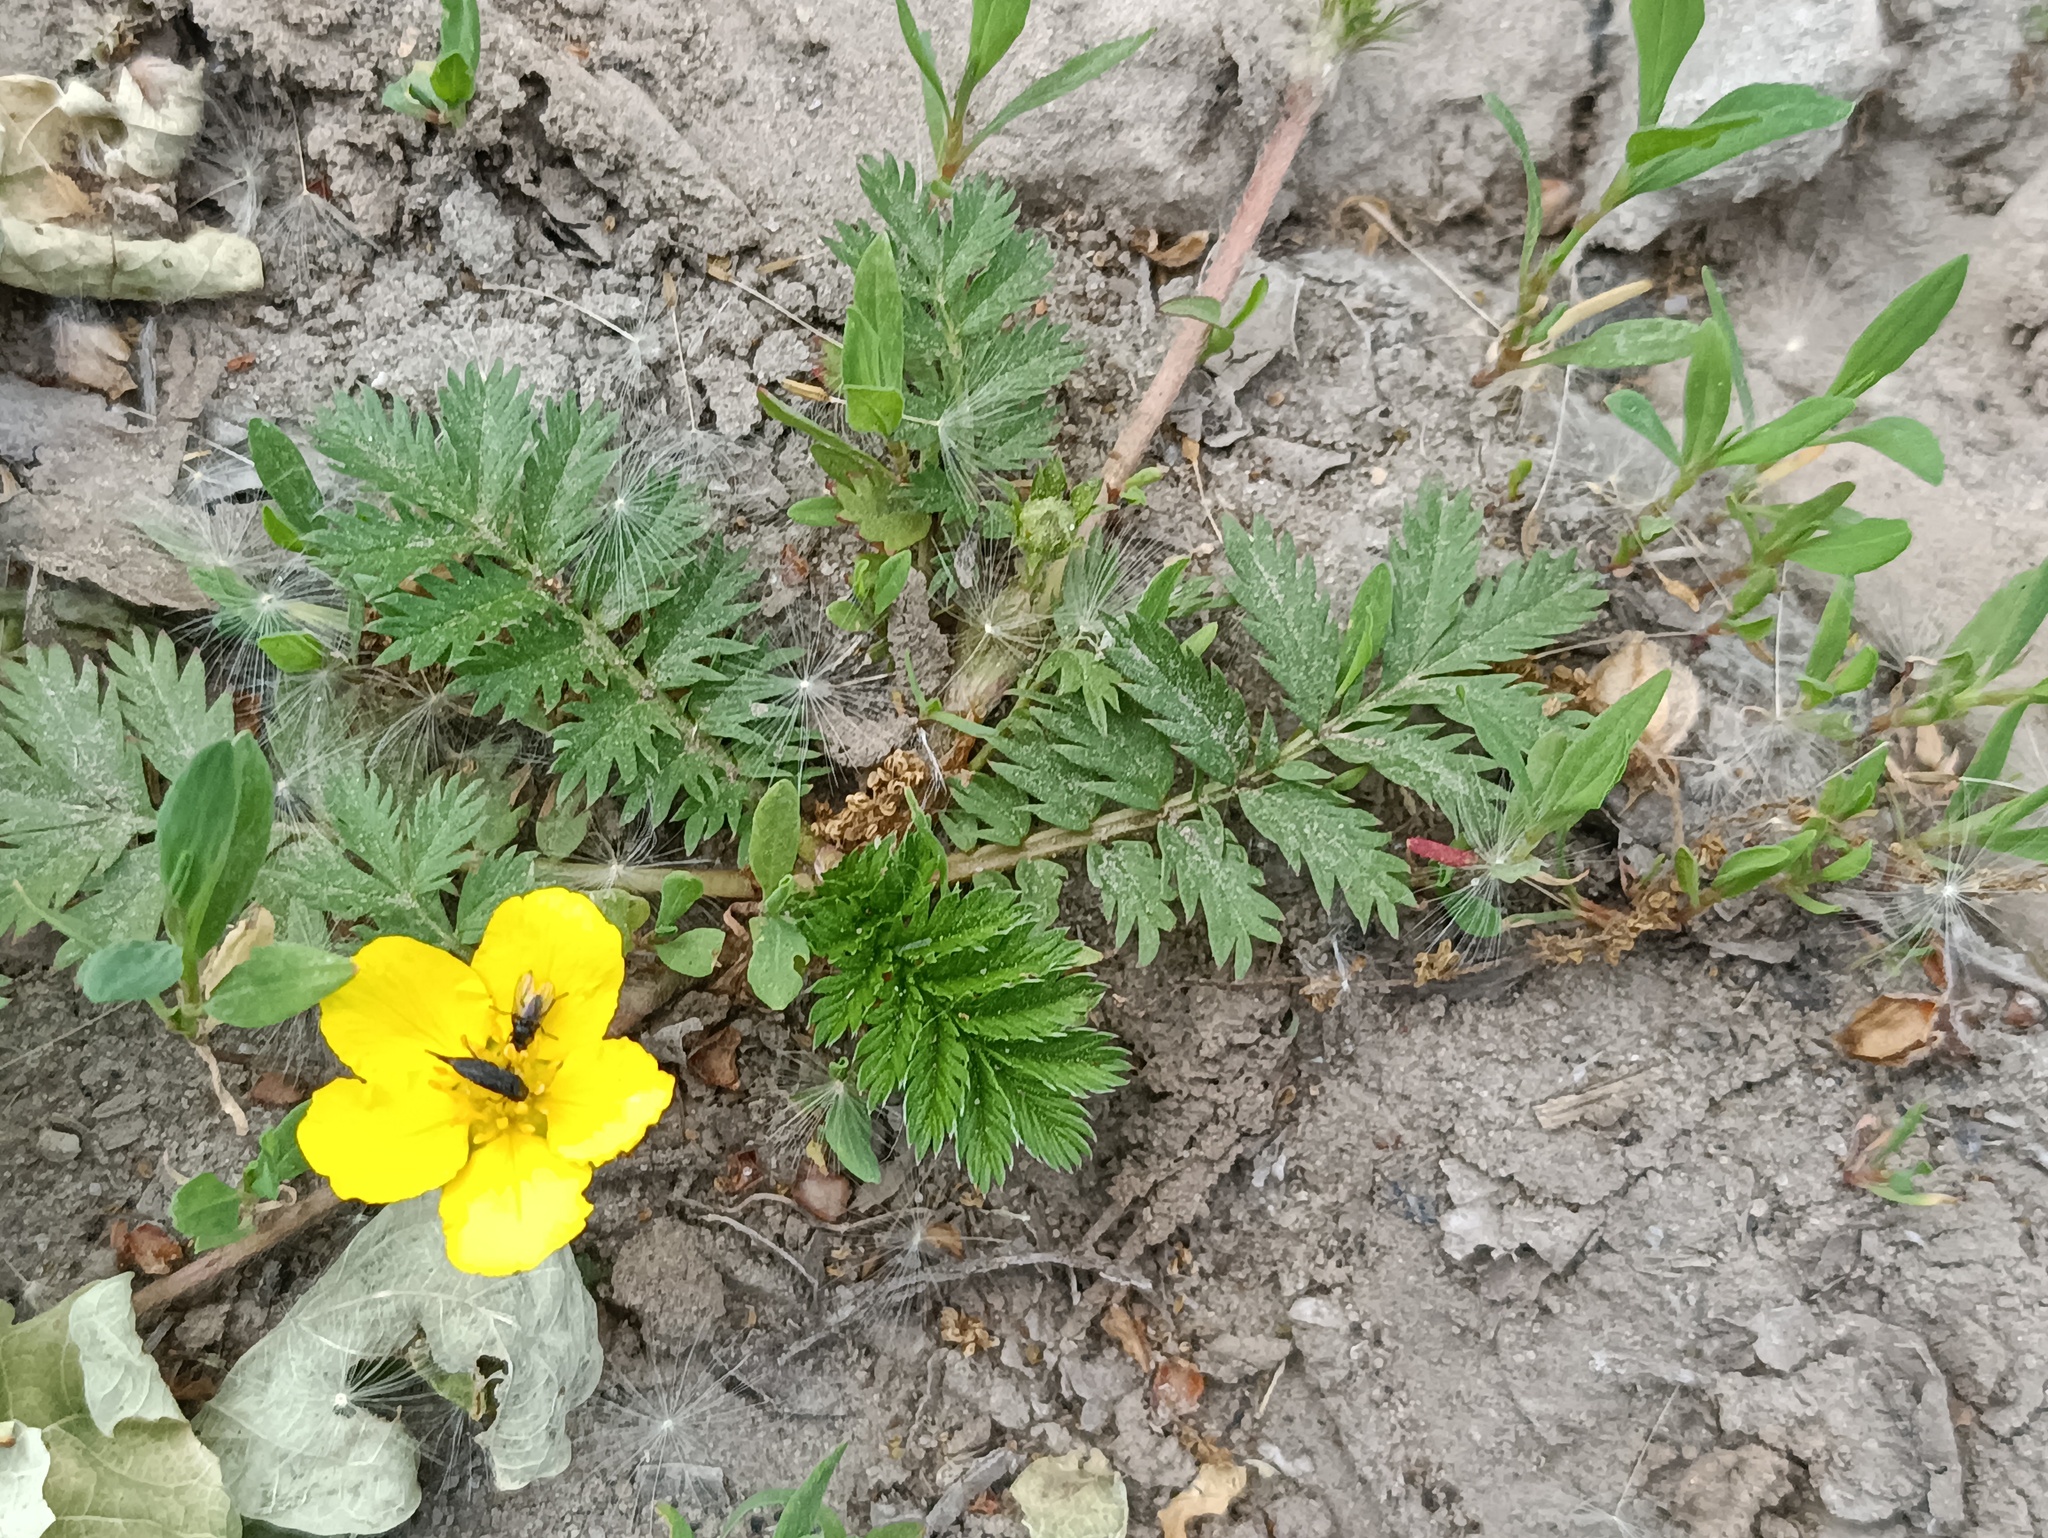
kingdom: Plantae
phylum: Tracheophyta
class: Magnoliopsida
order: Rosales
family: Rosaceae
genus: Argentina
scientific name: Argentina anserina
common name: Common silverweed
